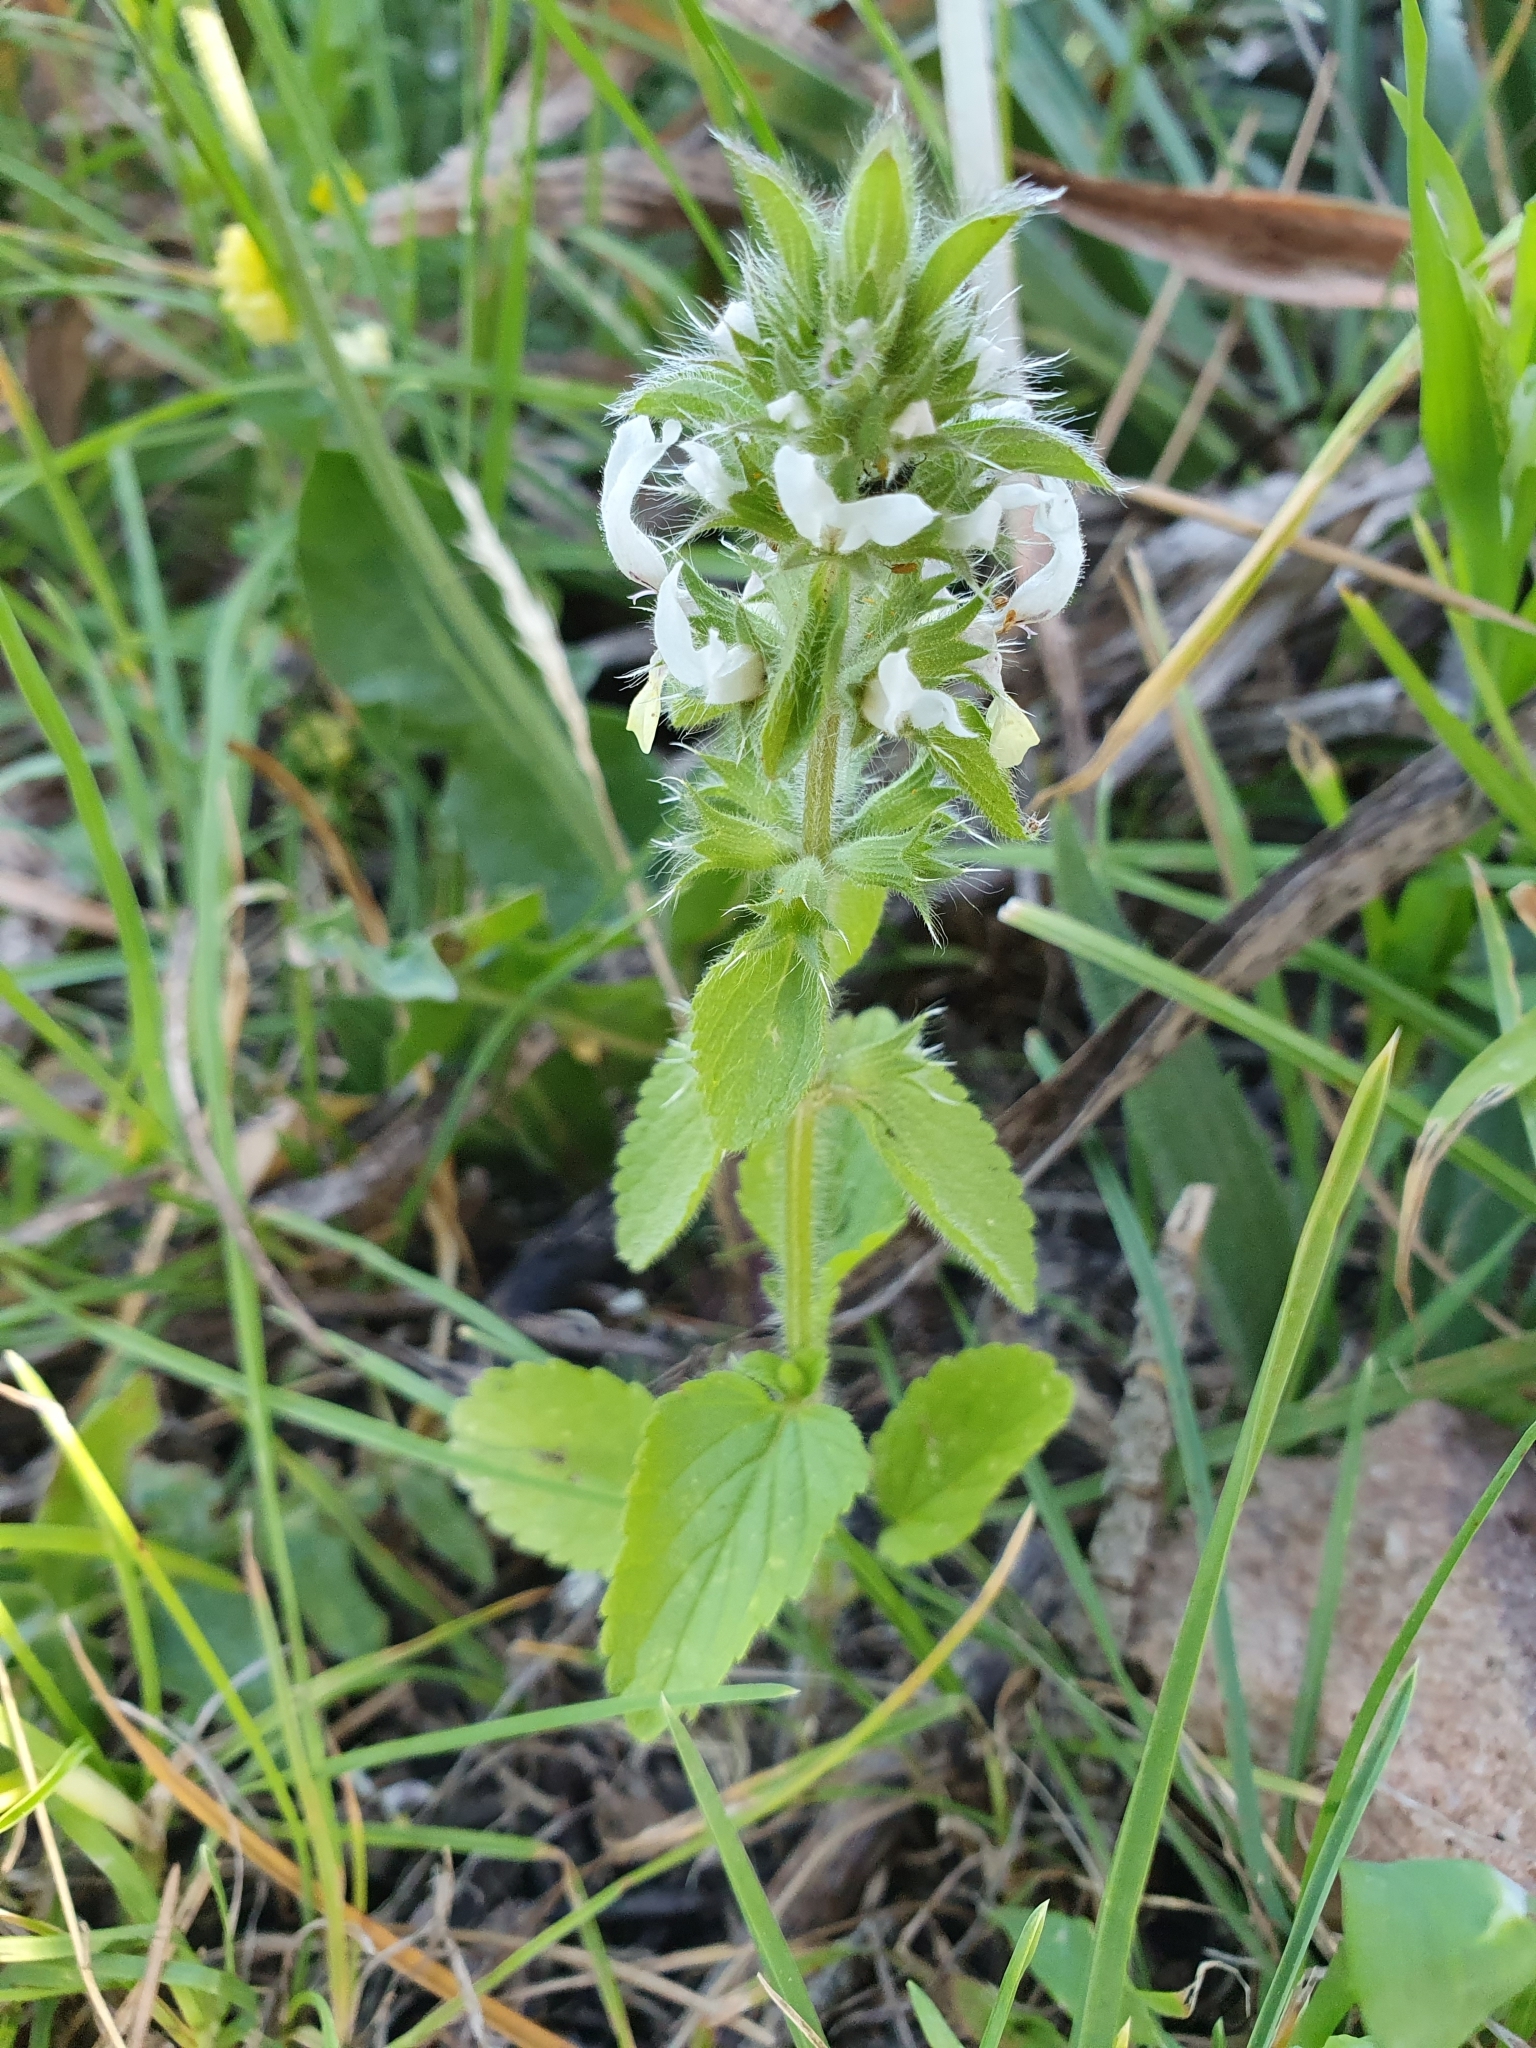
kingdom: Plantae
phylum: Tracheophyta
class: Magnoliopsida
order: Lamiales
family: Lamiaceae
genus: Stachys
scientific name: Stachys ocymastrum
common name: Italian hedgenettle
